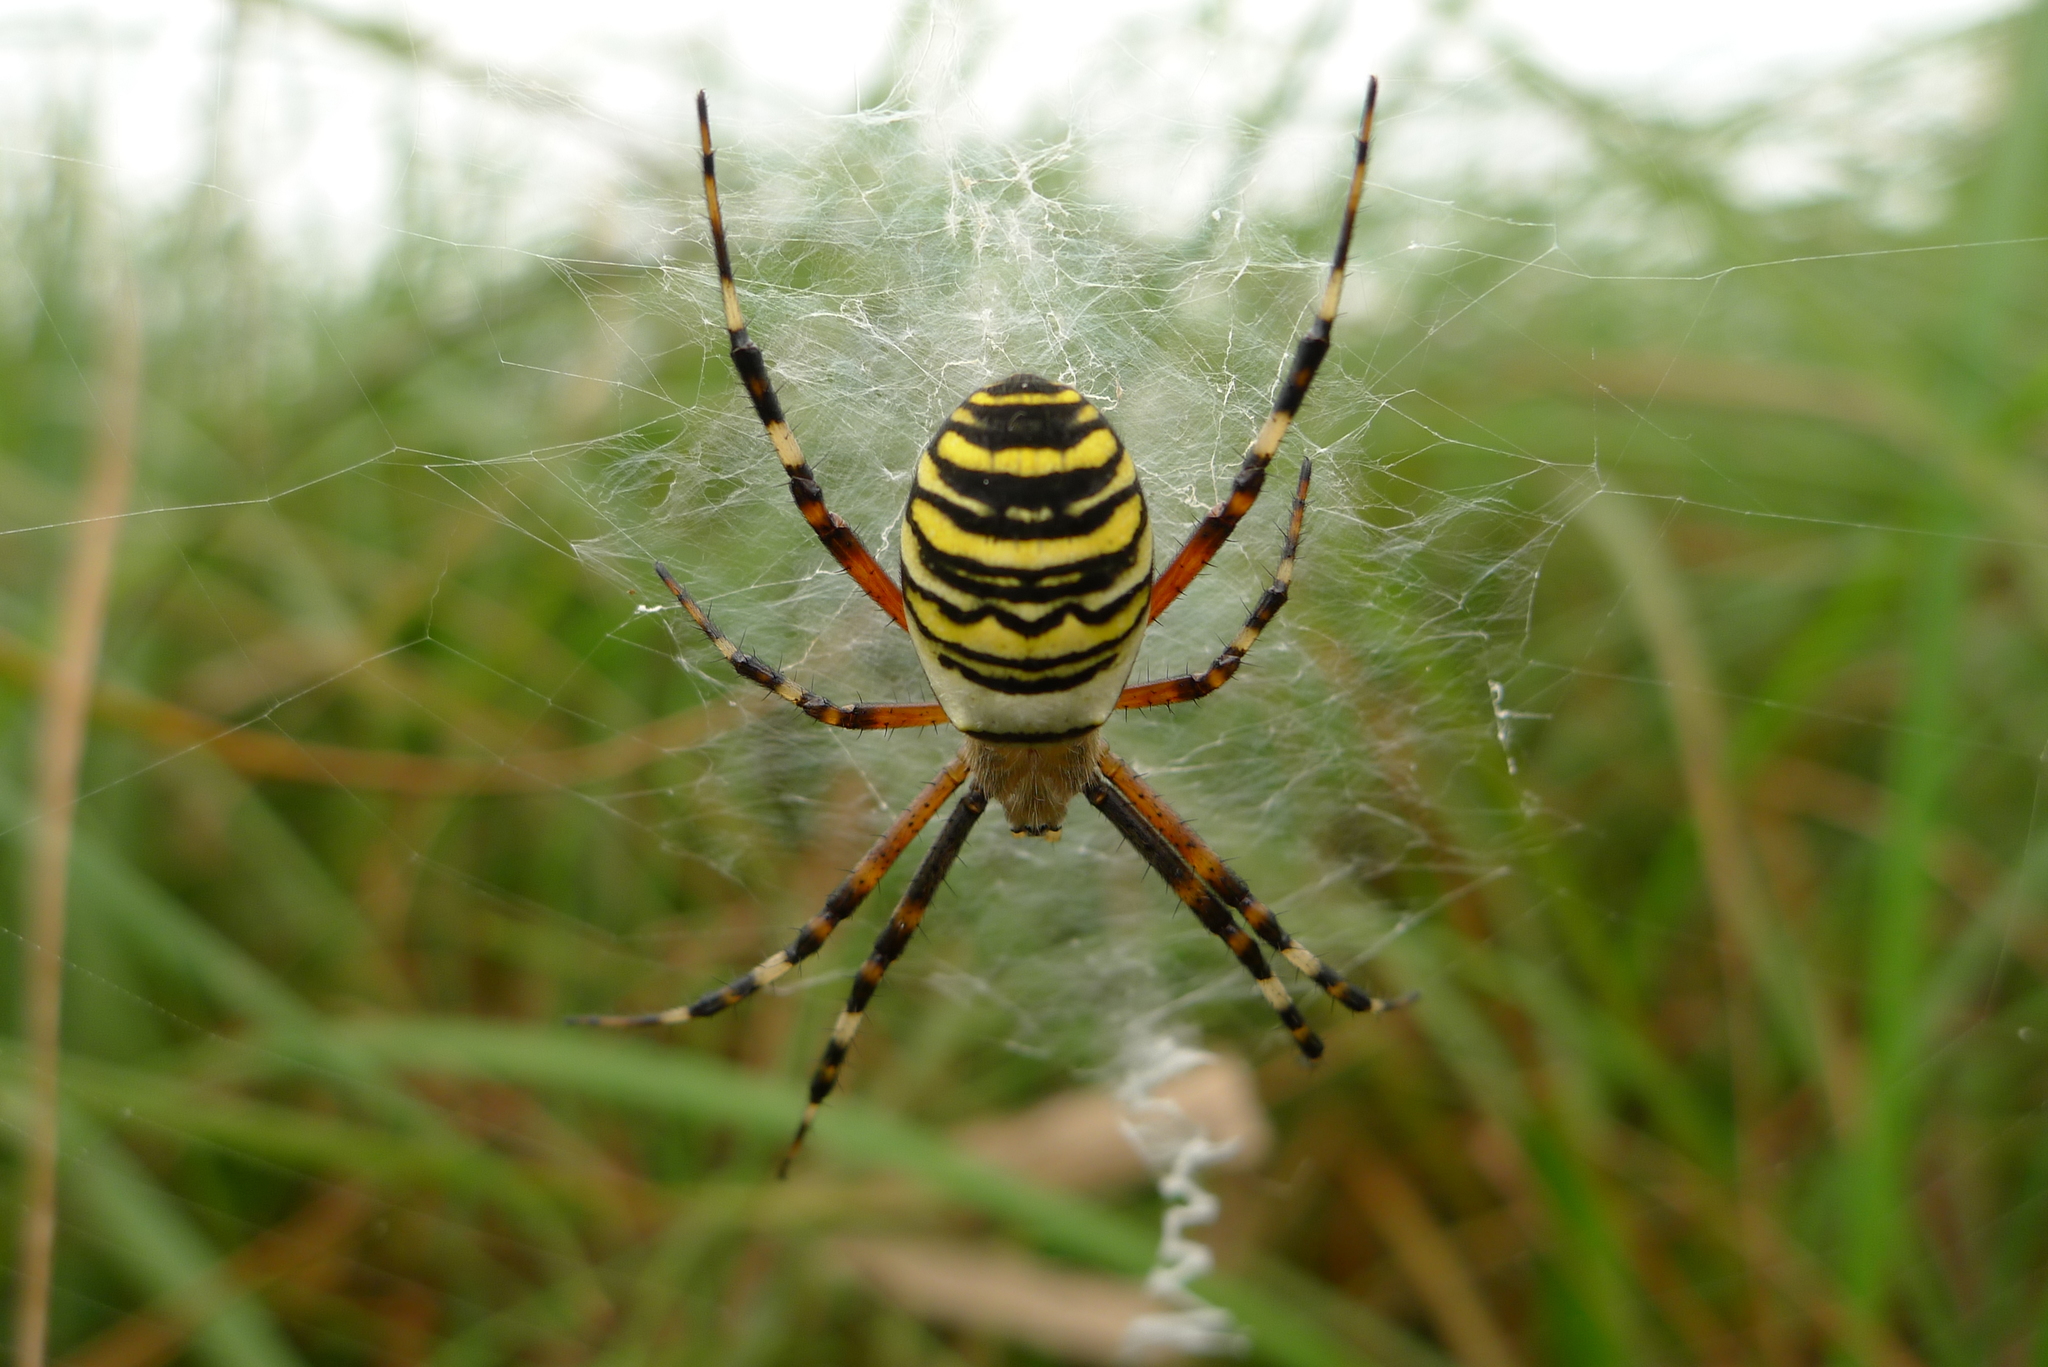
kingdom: Animalia
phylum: Arthropoda
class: Arachnida
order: Araneae
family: Araneidae
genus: Argiope
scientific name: Argiope bruennichi
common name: Wasp spider
